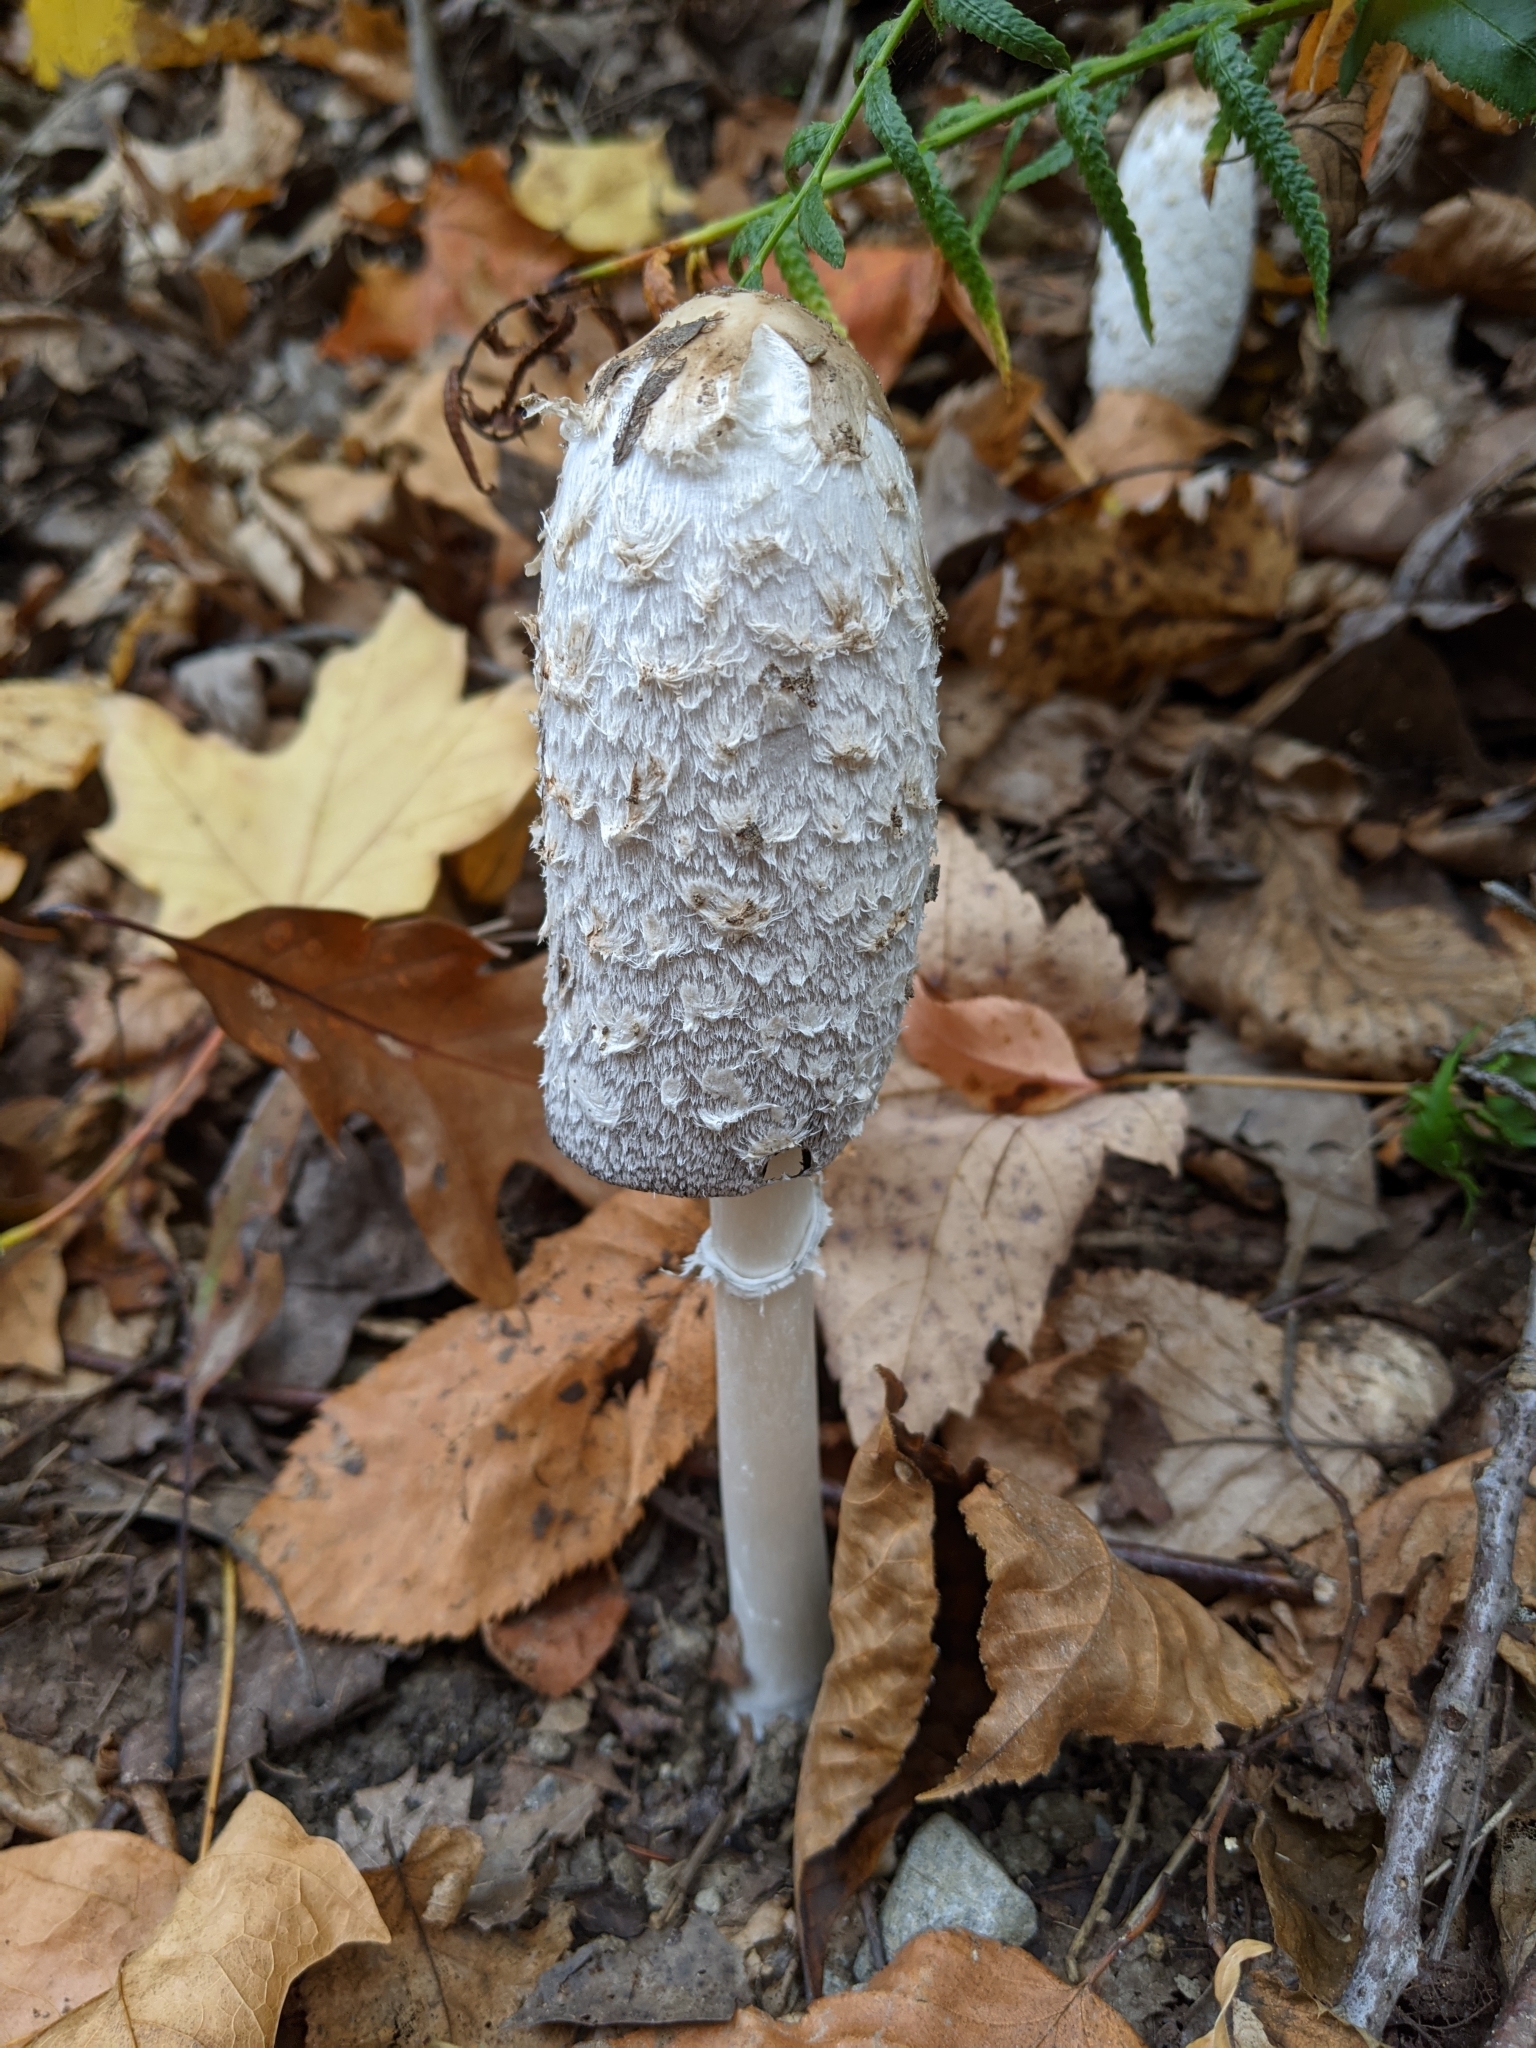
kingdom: Fungi
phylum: Basidiomycota
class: Agaricomycetes
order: Agaricales
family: Agaricaceae
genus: Coprinus
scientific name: Coprinus comatus
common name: Lawyer's wig
